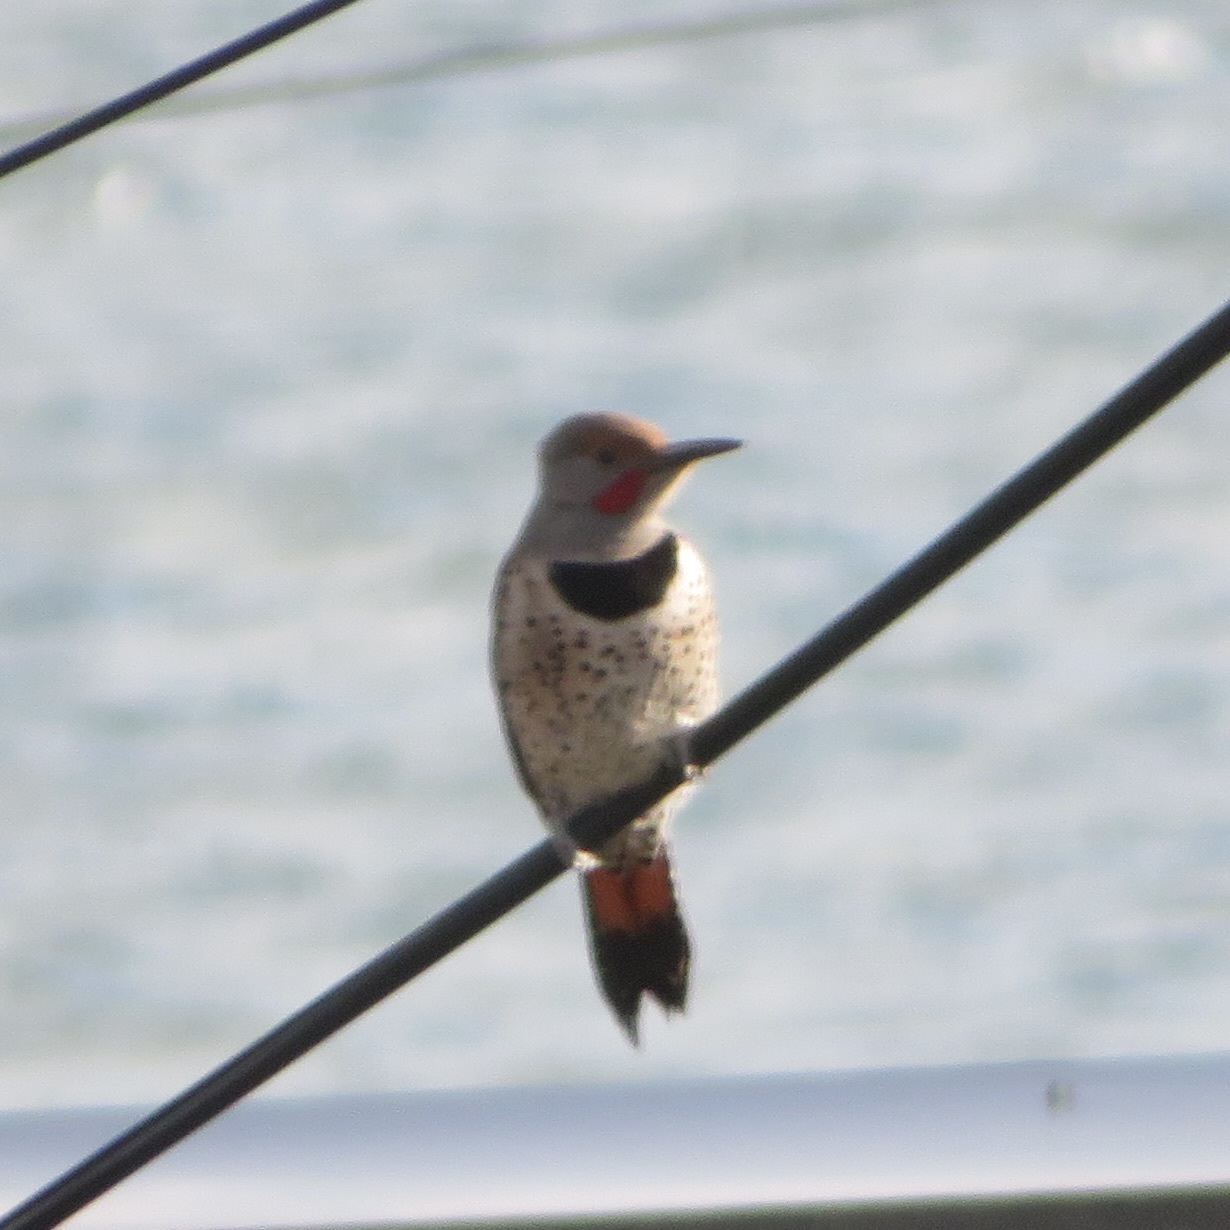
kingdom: Animalia
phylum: Chordata
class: Aves
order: Piciformes
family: Picidae
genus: Colaptes
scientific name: Colaptes auratus
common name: Northern flicker
